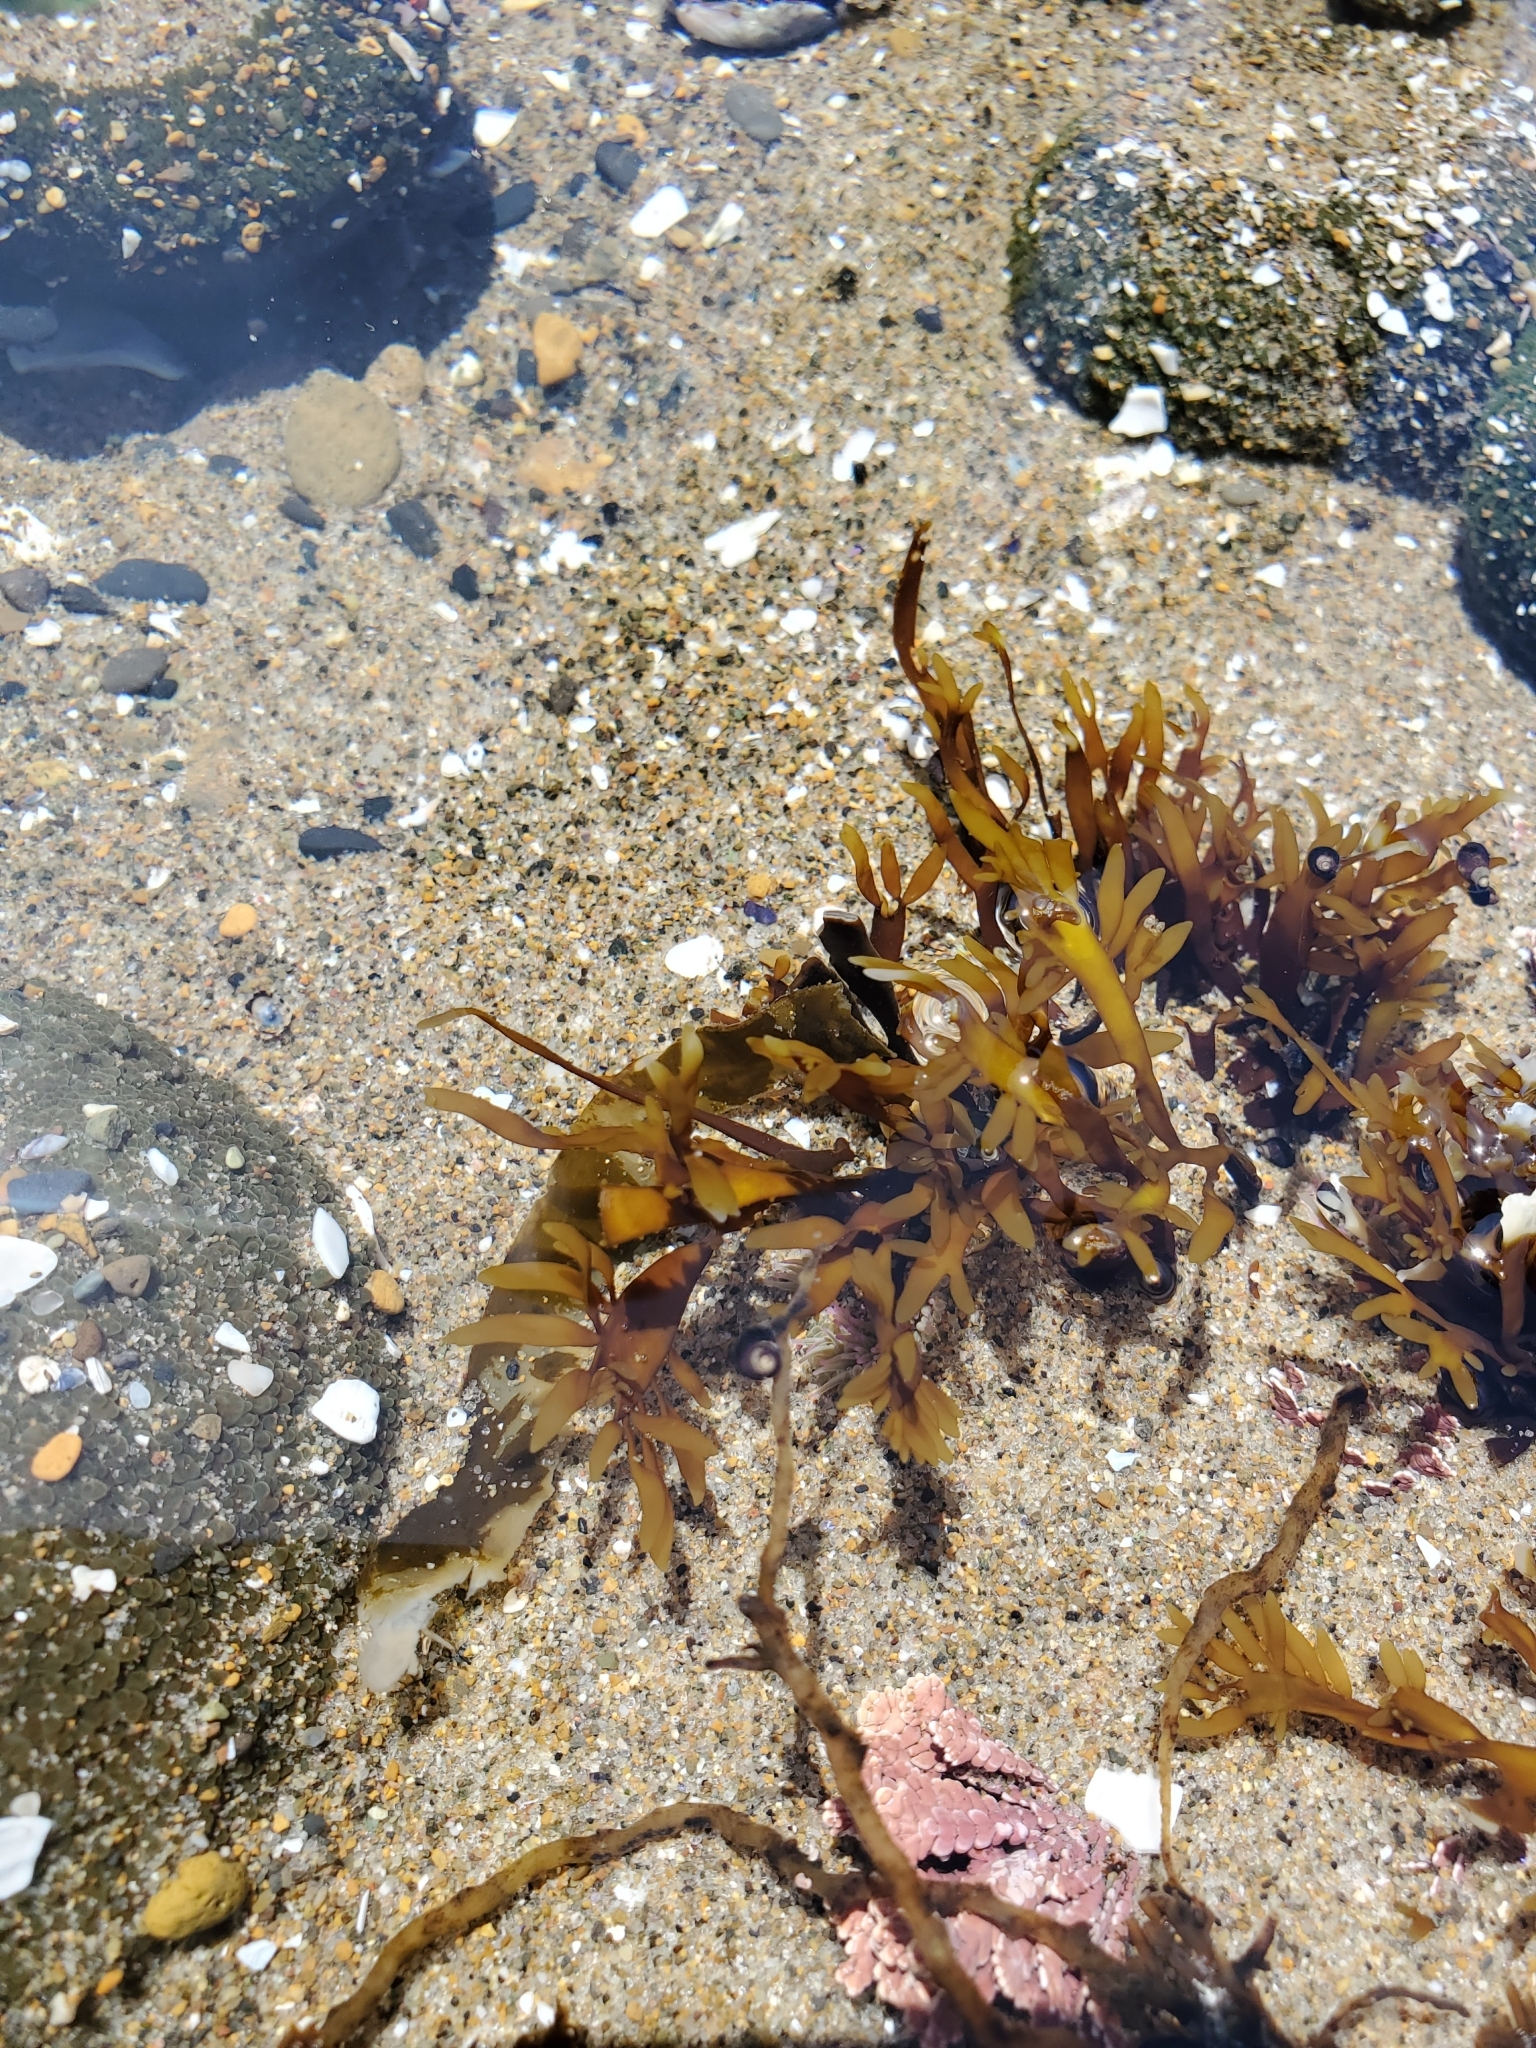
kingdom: Chromista
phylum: Ochrophyta
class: Phaeophyceae
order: Fucales
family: Fucaceae
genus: Fucus
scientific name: Fucus distichus
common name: Rockweed
